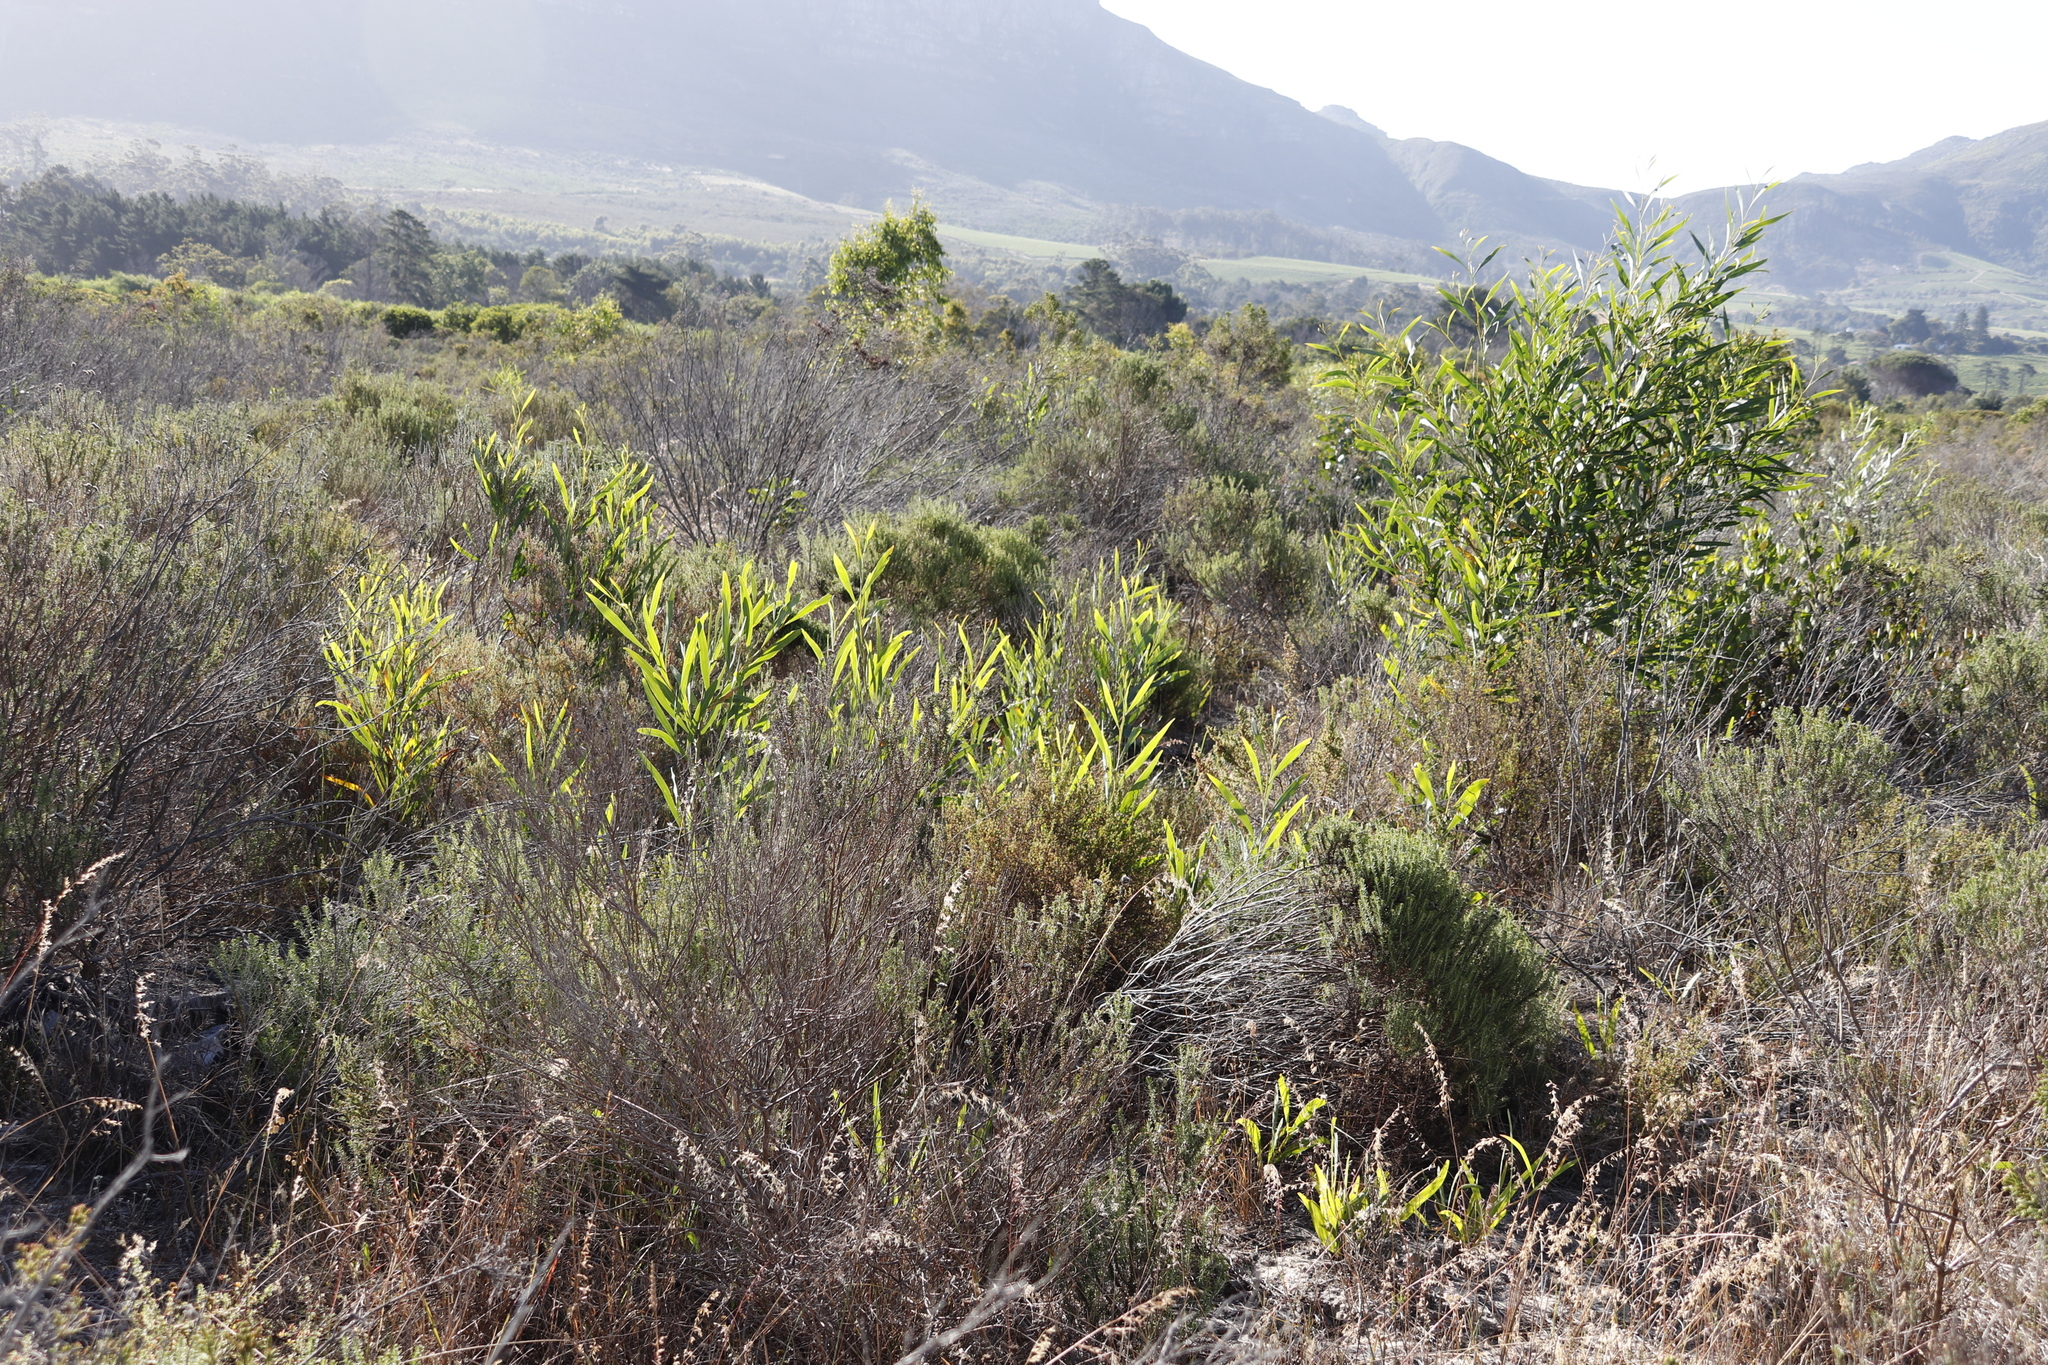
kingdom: Plantae
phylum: Tracheophyta
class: Magnoliopsida
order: Fabales
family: Fabaceae
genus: Acacia
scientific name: Acacia saligna
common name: Orange wattle
